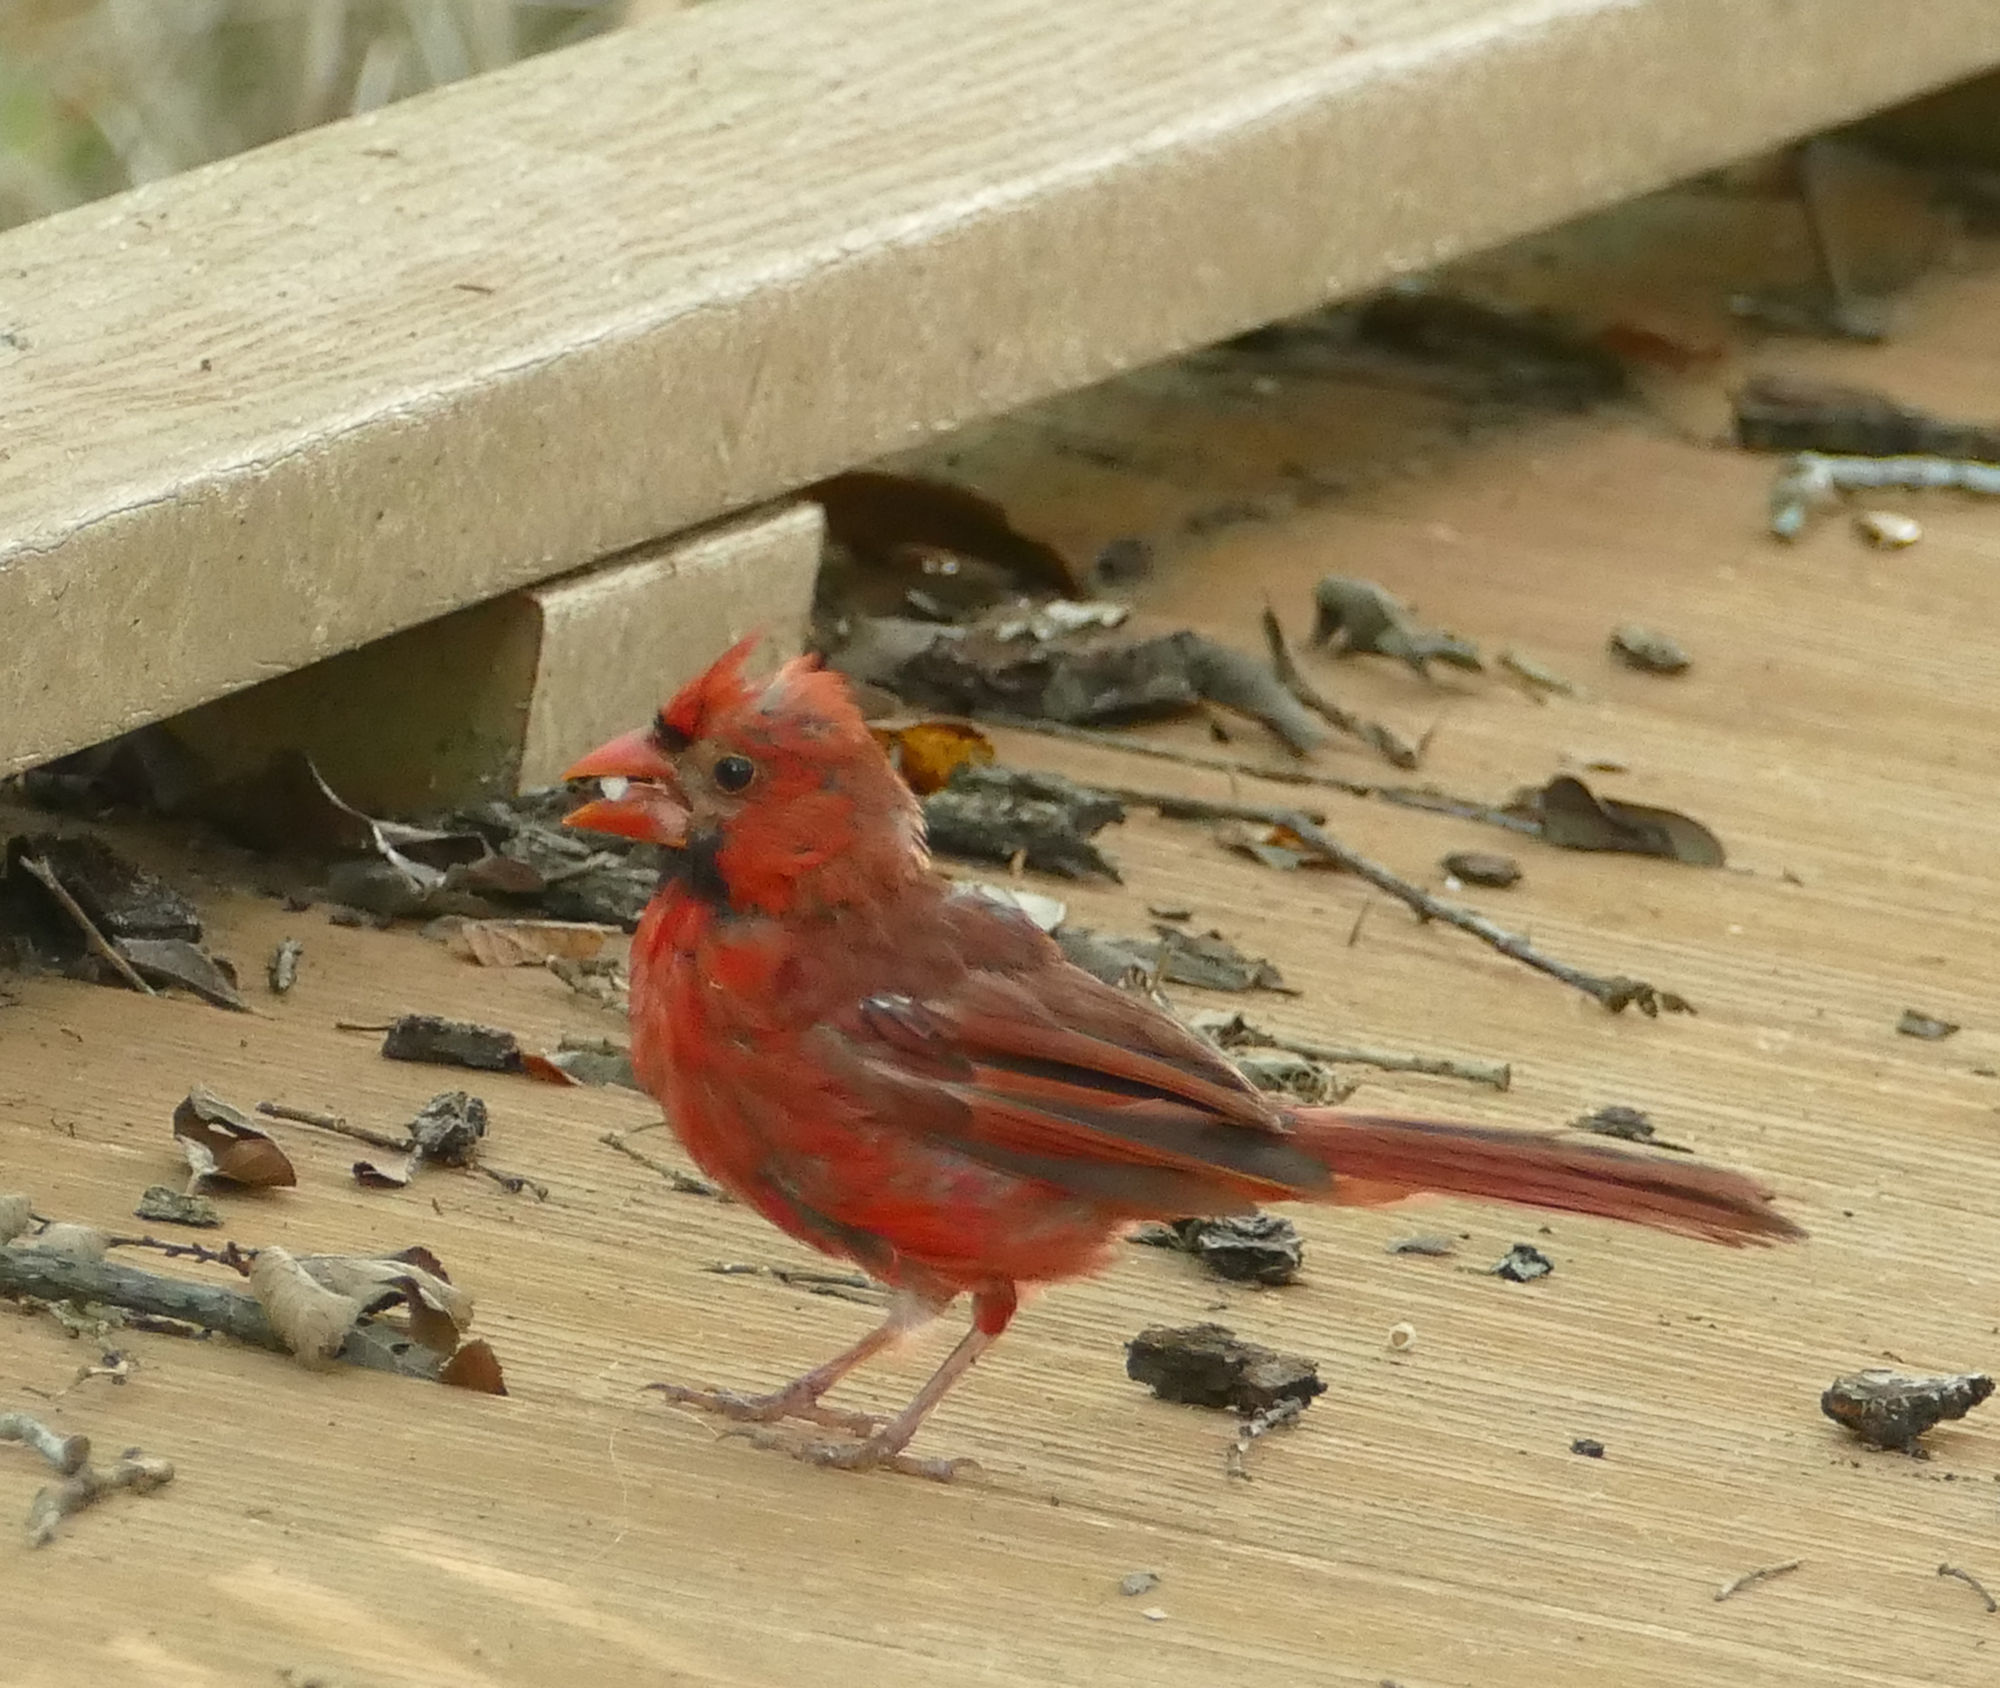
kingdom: Animalia
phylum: Chordata
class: Aves
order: Passeriformes
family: Cardinalidae
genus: Cardinalis
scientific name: Cardinalis cardinalis
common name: Northern cardinal
